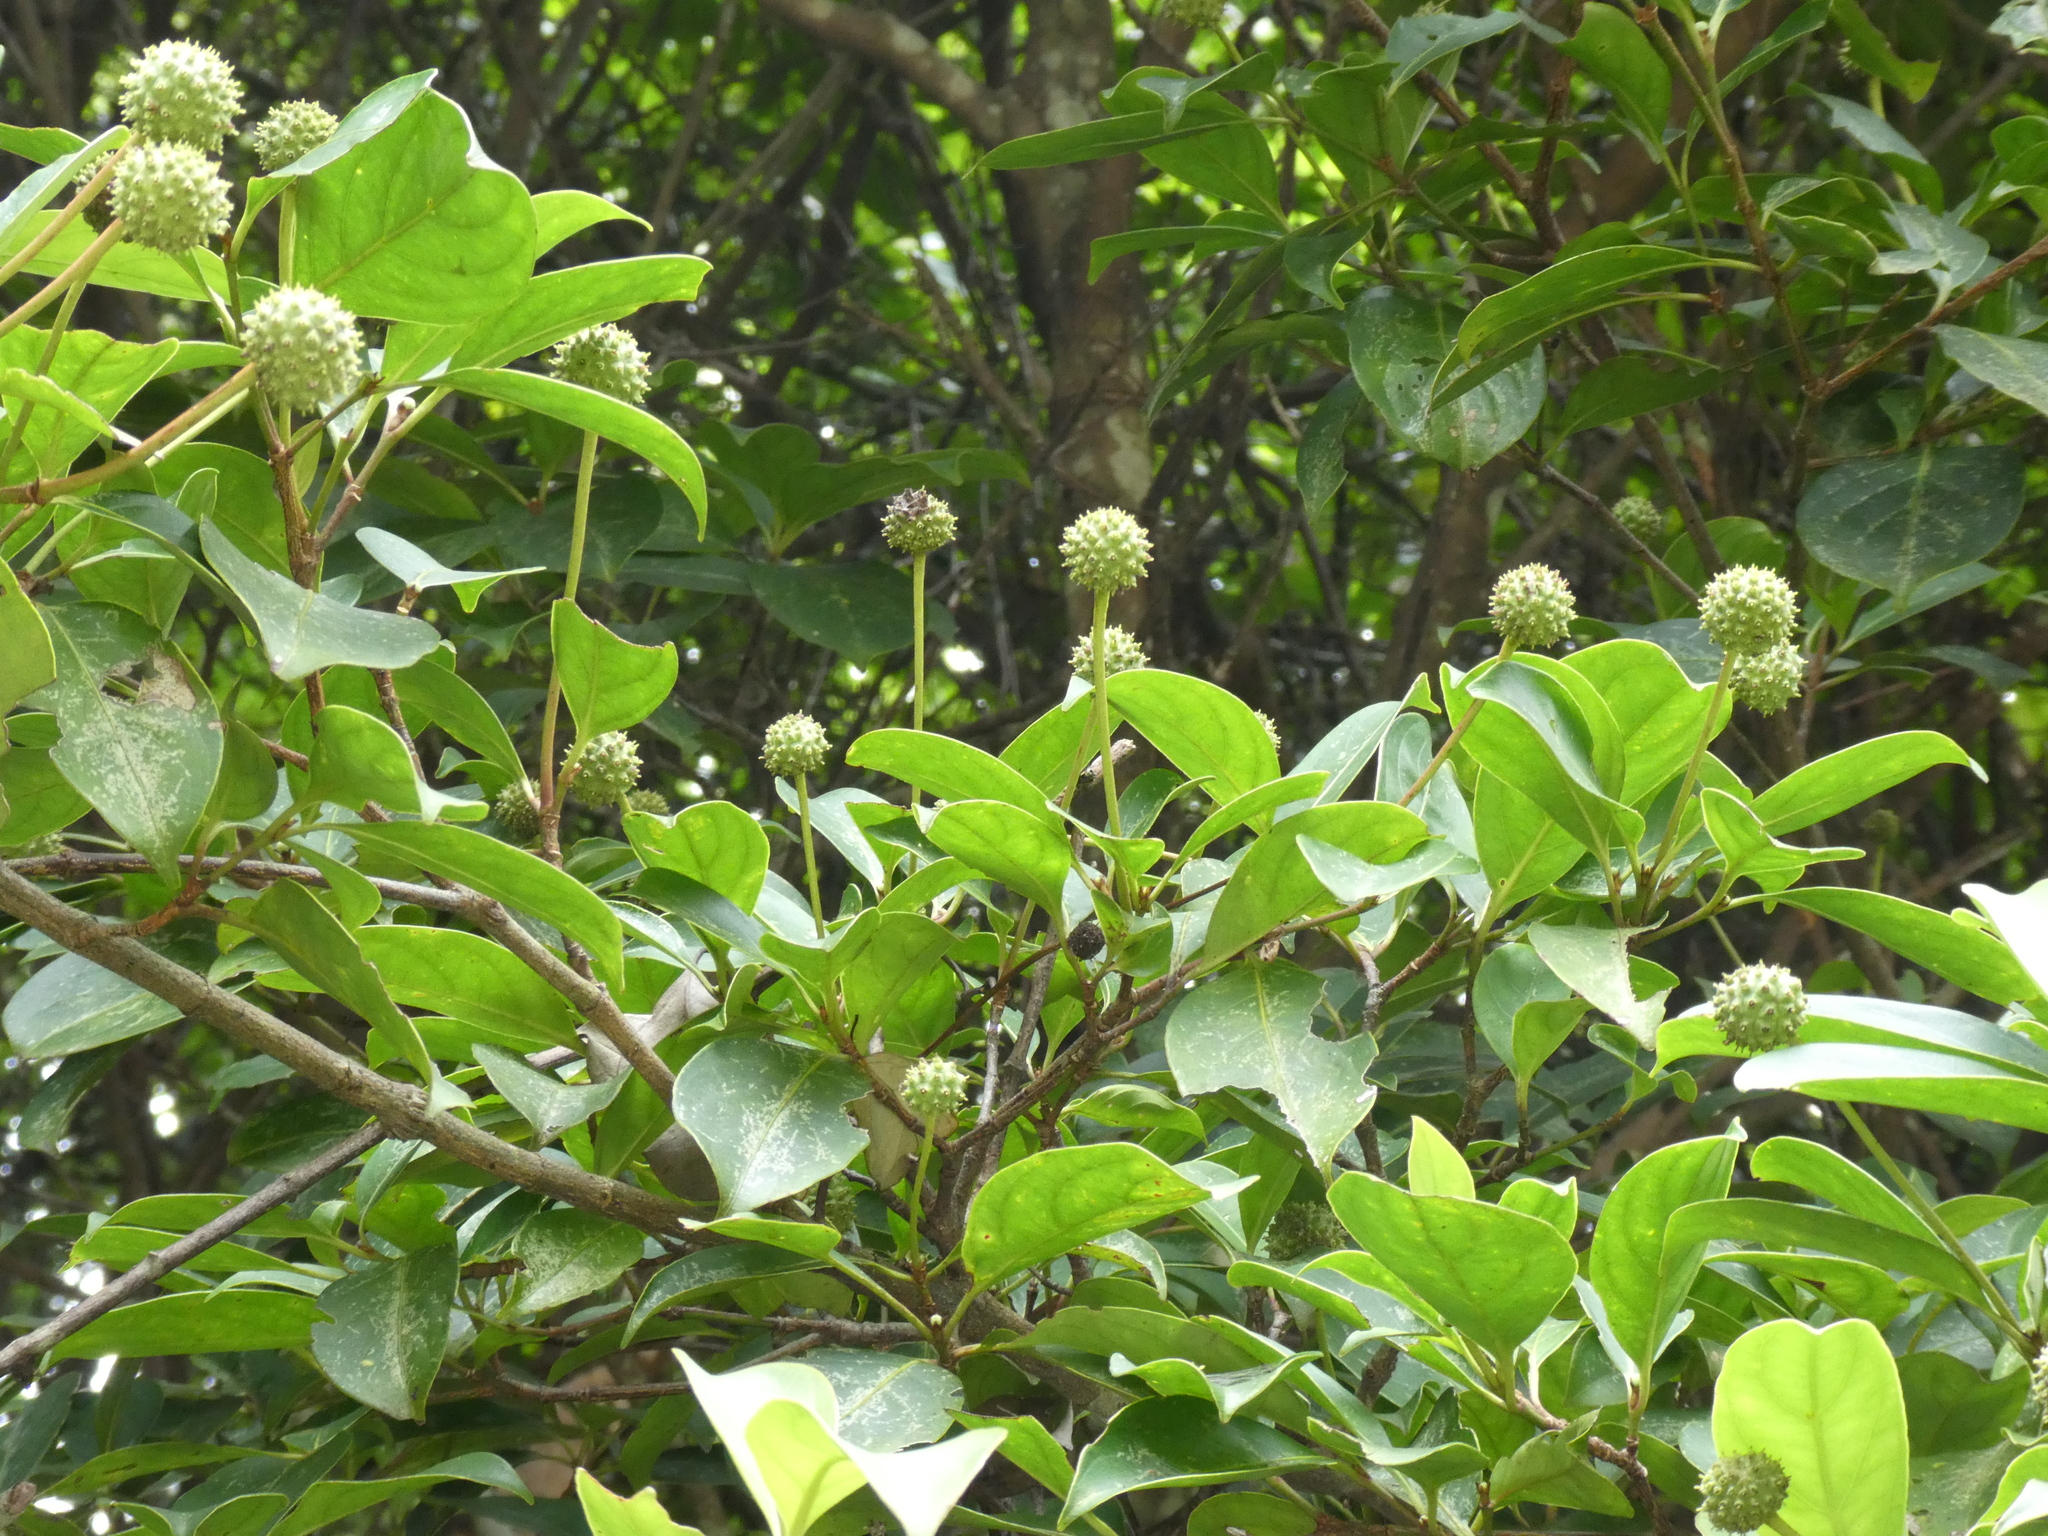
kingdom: Plantae
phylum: Tracheophyta
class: Magnoliopsida
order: Cornales
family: Cornaceae
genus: Cornus
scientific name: Cornus hongkongensis
